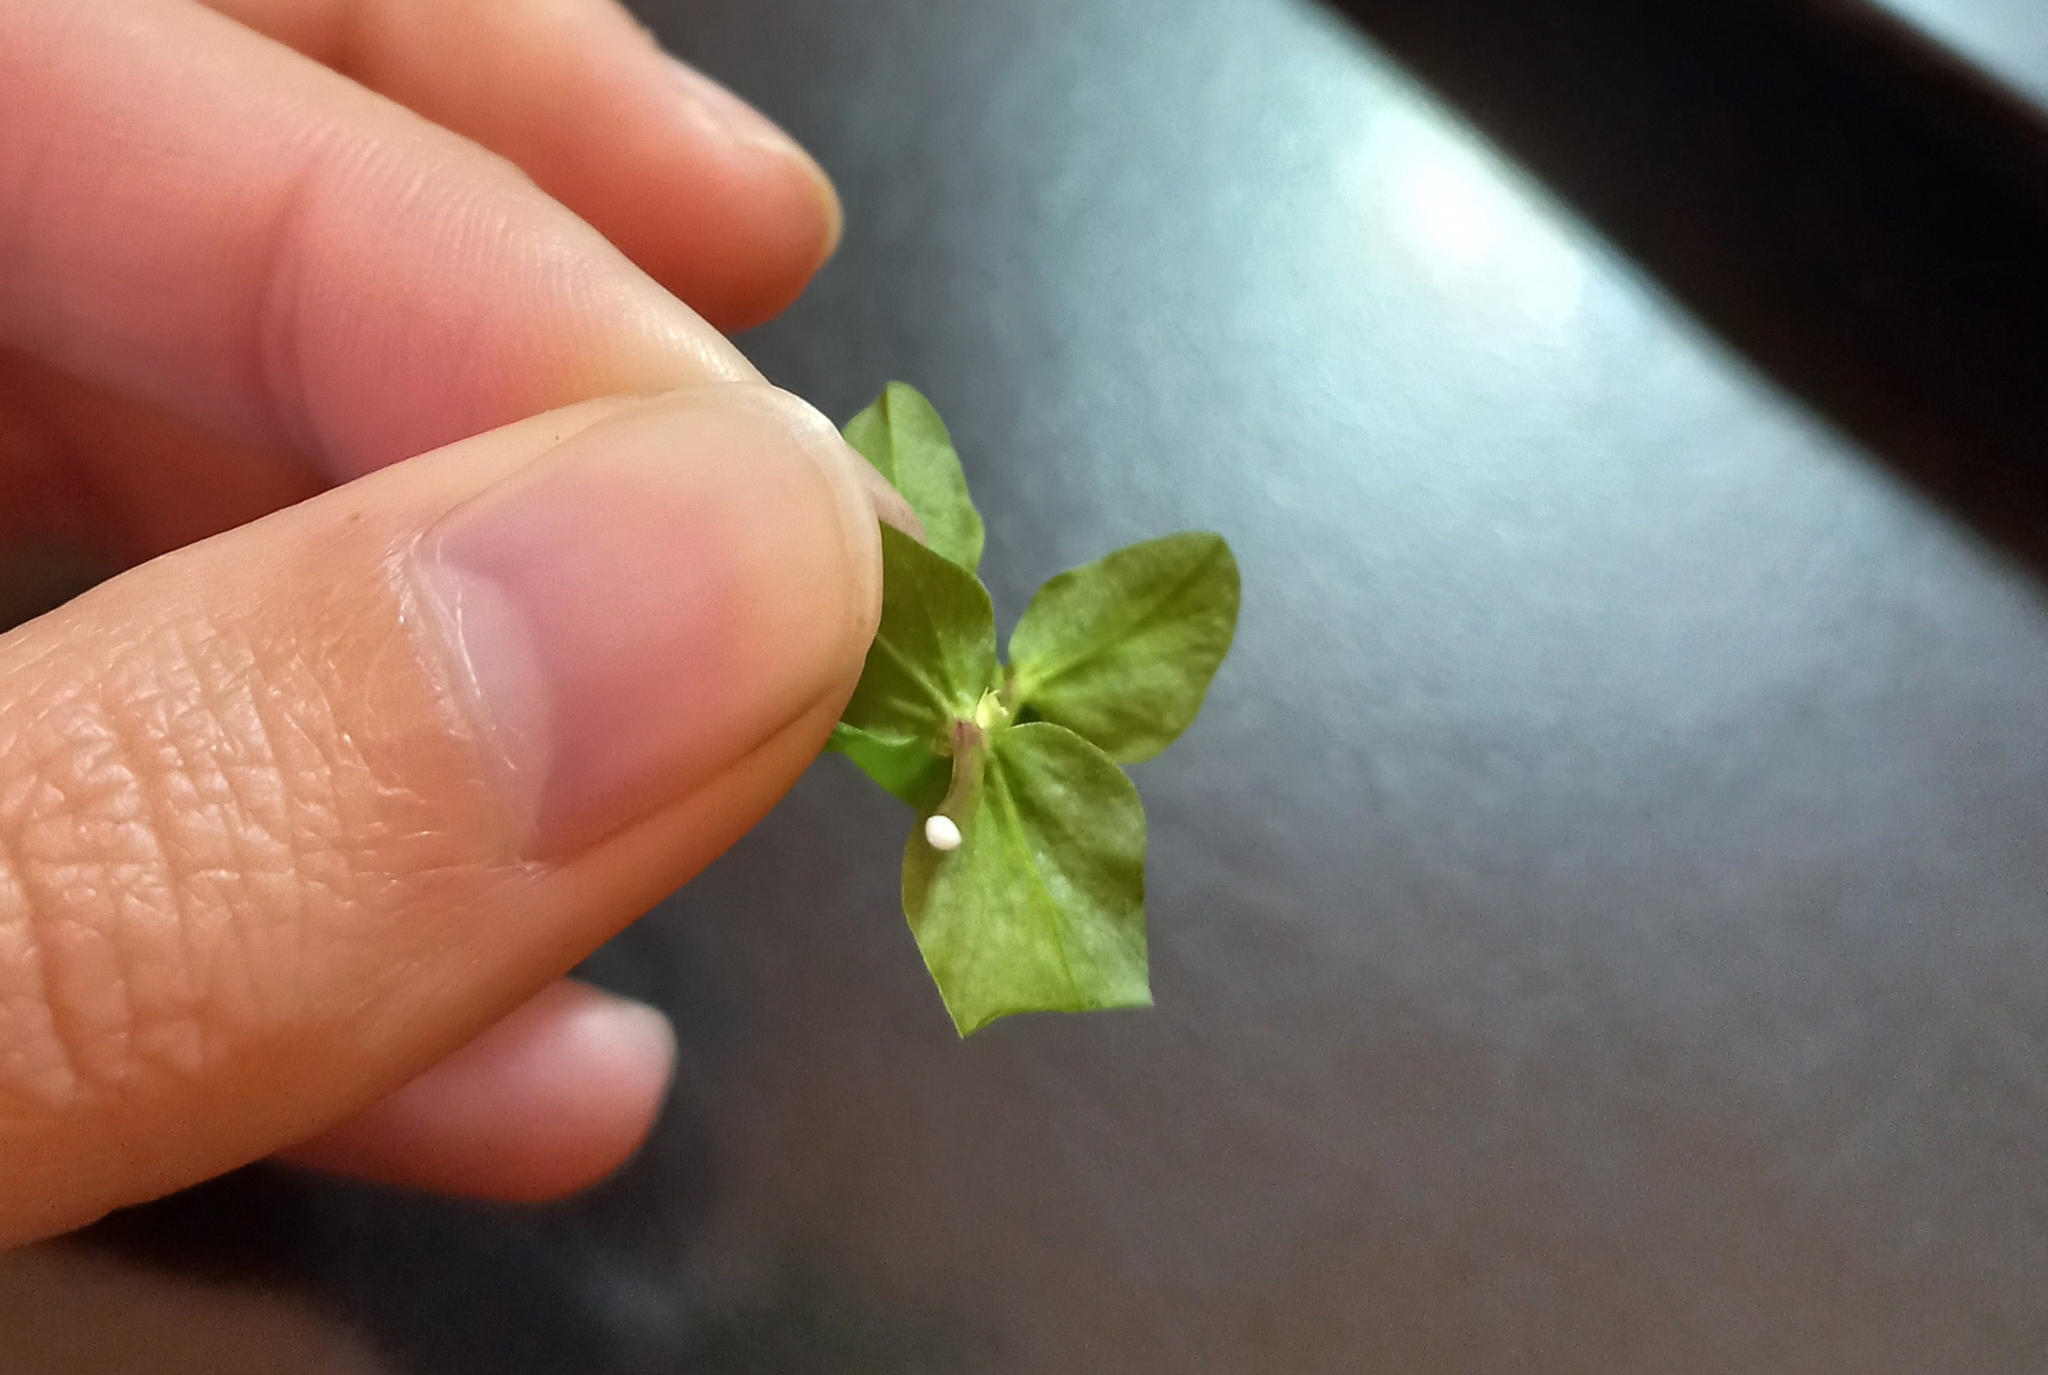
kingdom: Plantae
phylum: Tracheophyta
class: Magnoliopsida
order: Malpighiales
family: Euphorbiaceae
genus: Euphorbia
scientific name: Euphorbia peplus
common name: Petty spurge
